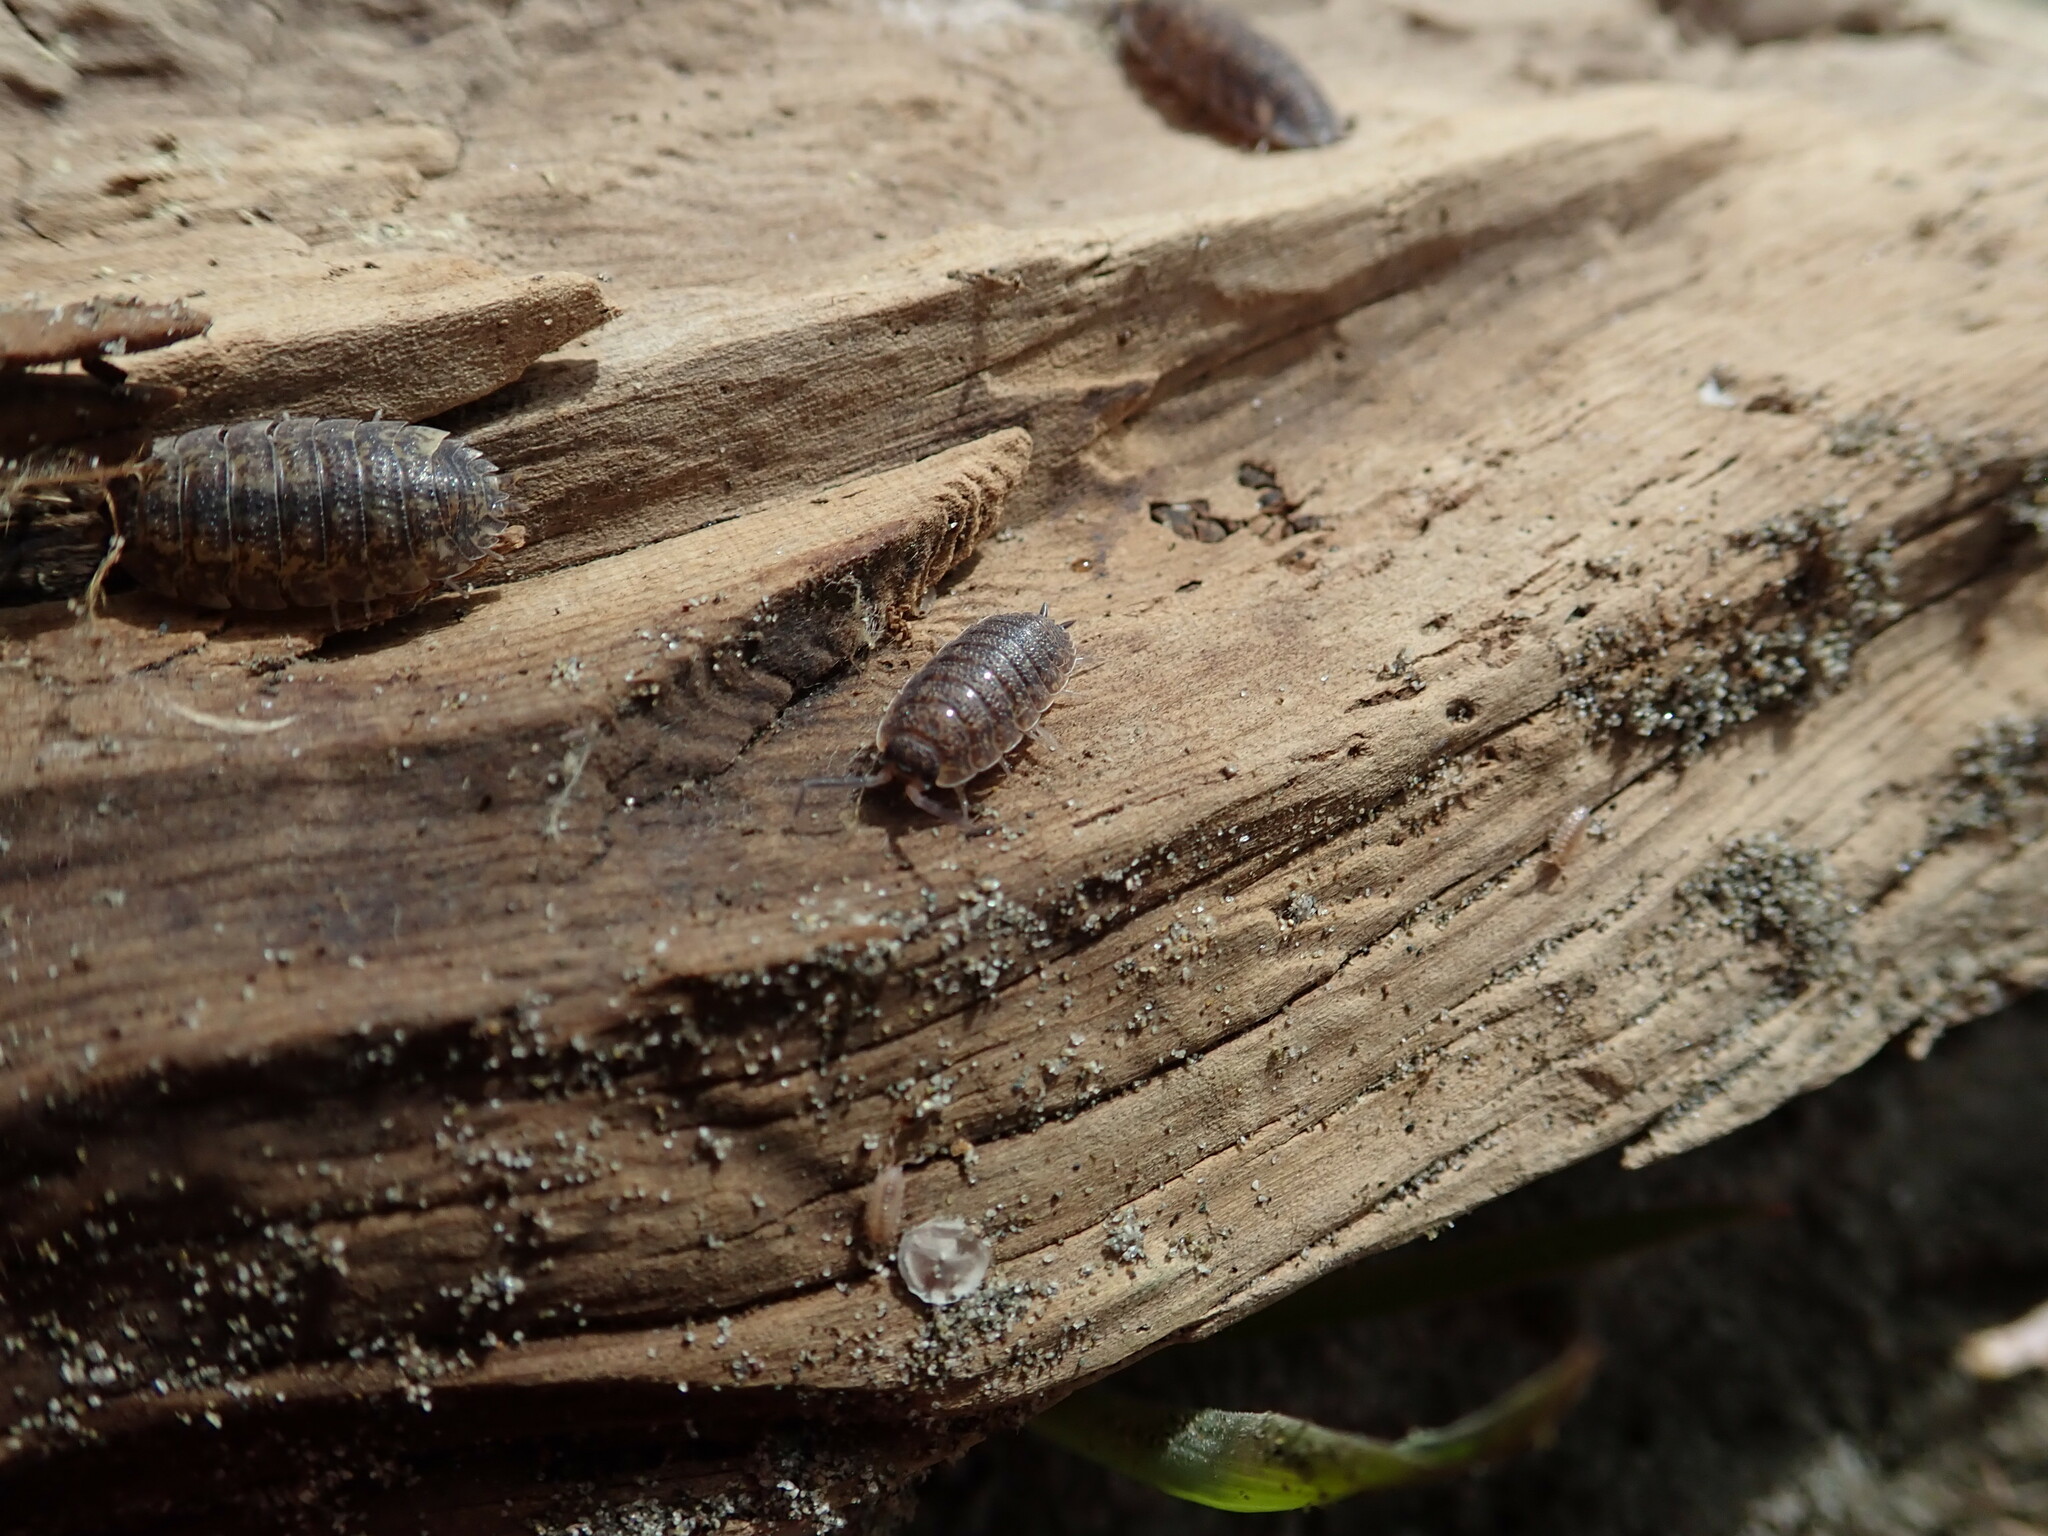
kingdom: Animalia
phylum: Arthropoda
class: Malacostraca
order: Isopoda
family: Porcellionidae
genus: Porcellio
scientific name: Porcellio scaber
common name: Common rough woodlouse
